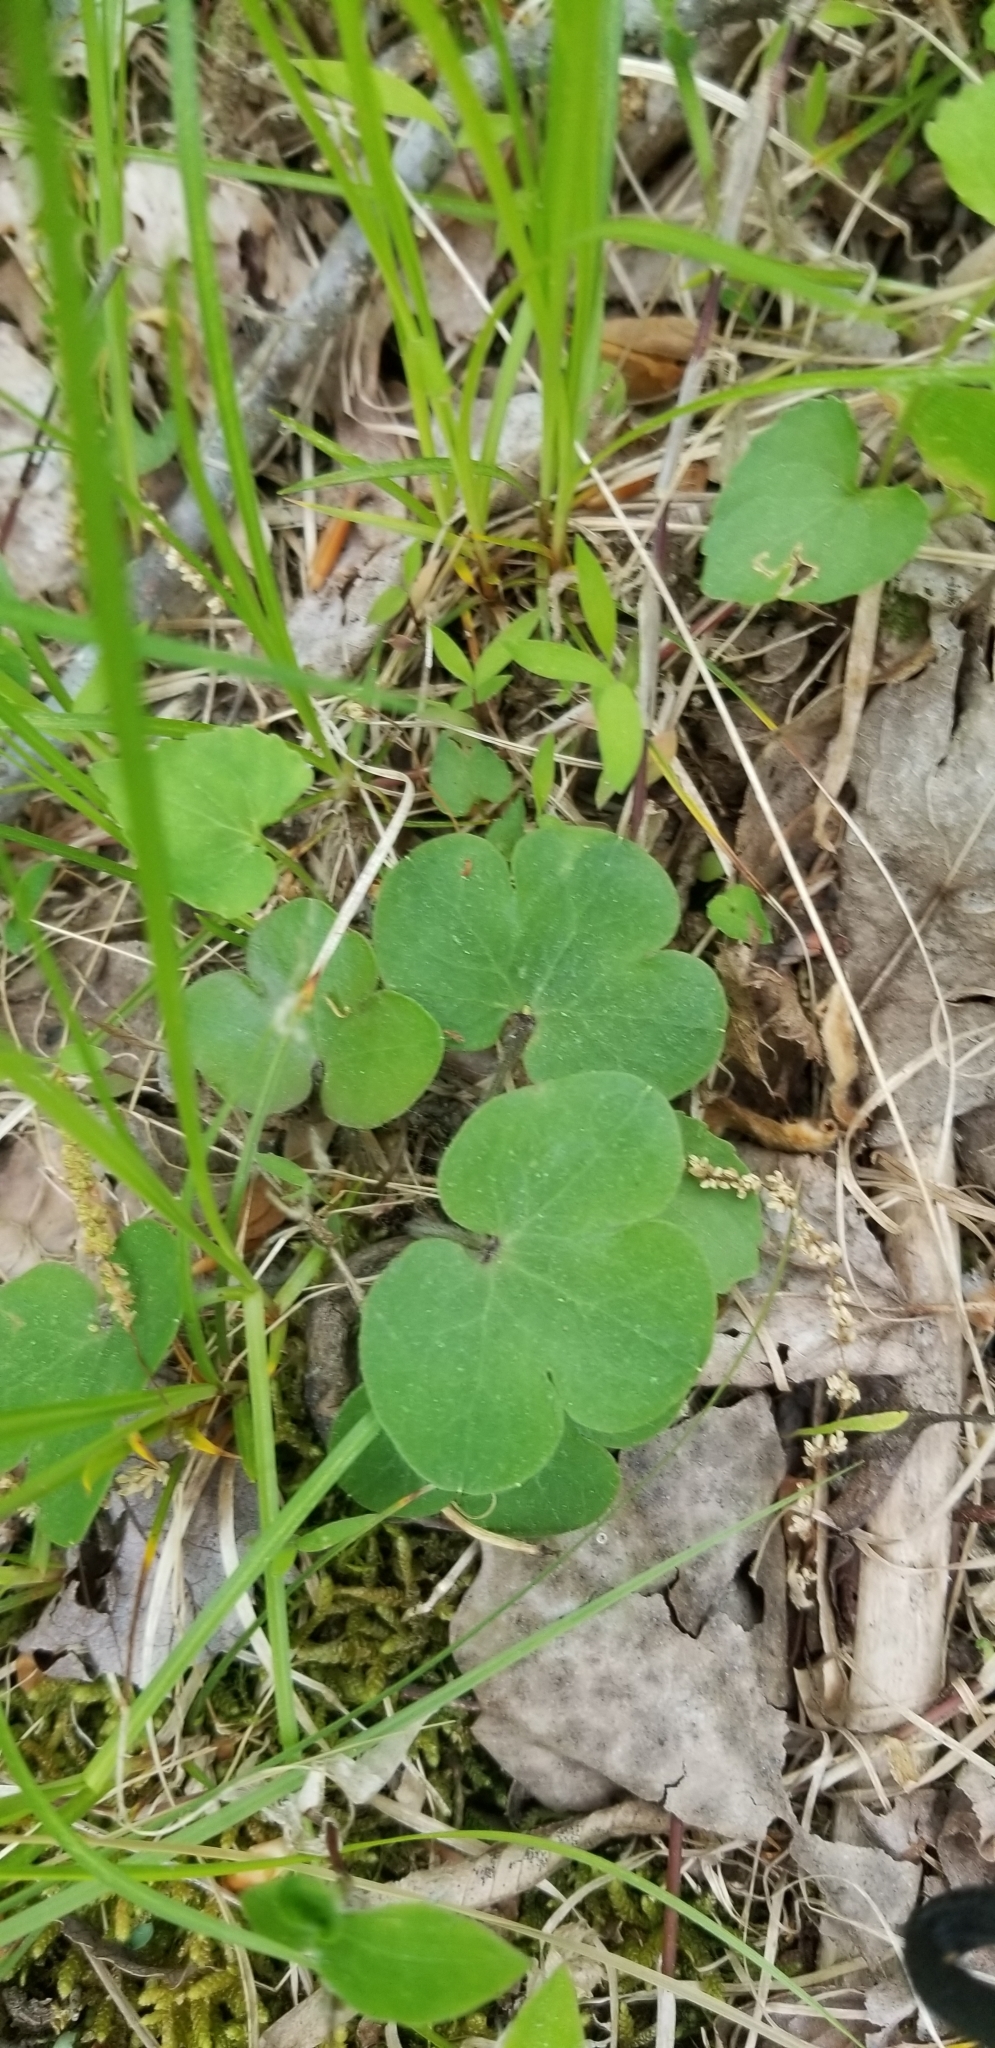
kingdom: Plantae
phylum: Tracheophyta
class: Magnoliopsida
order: Ranunculales
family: Ranunculaceae
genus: Hepatica
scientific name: Hepatica americana
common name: American hepatica
